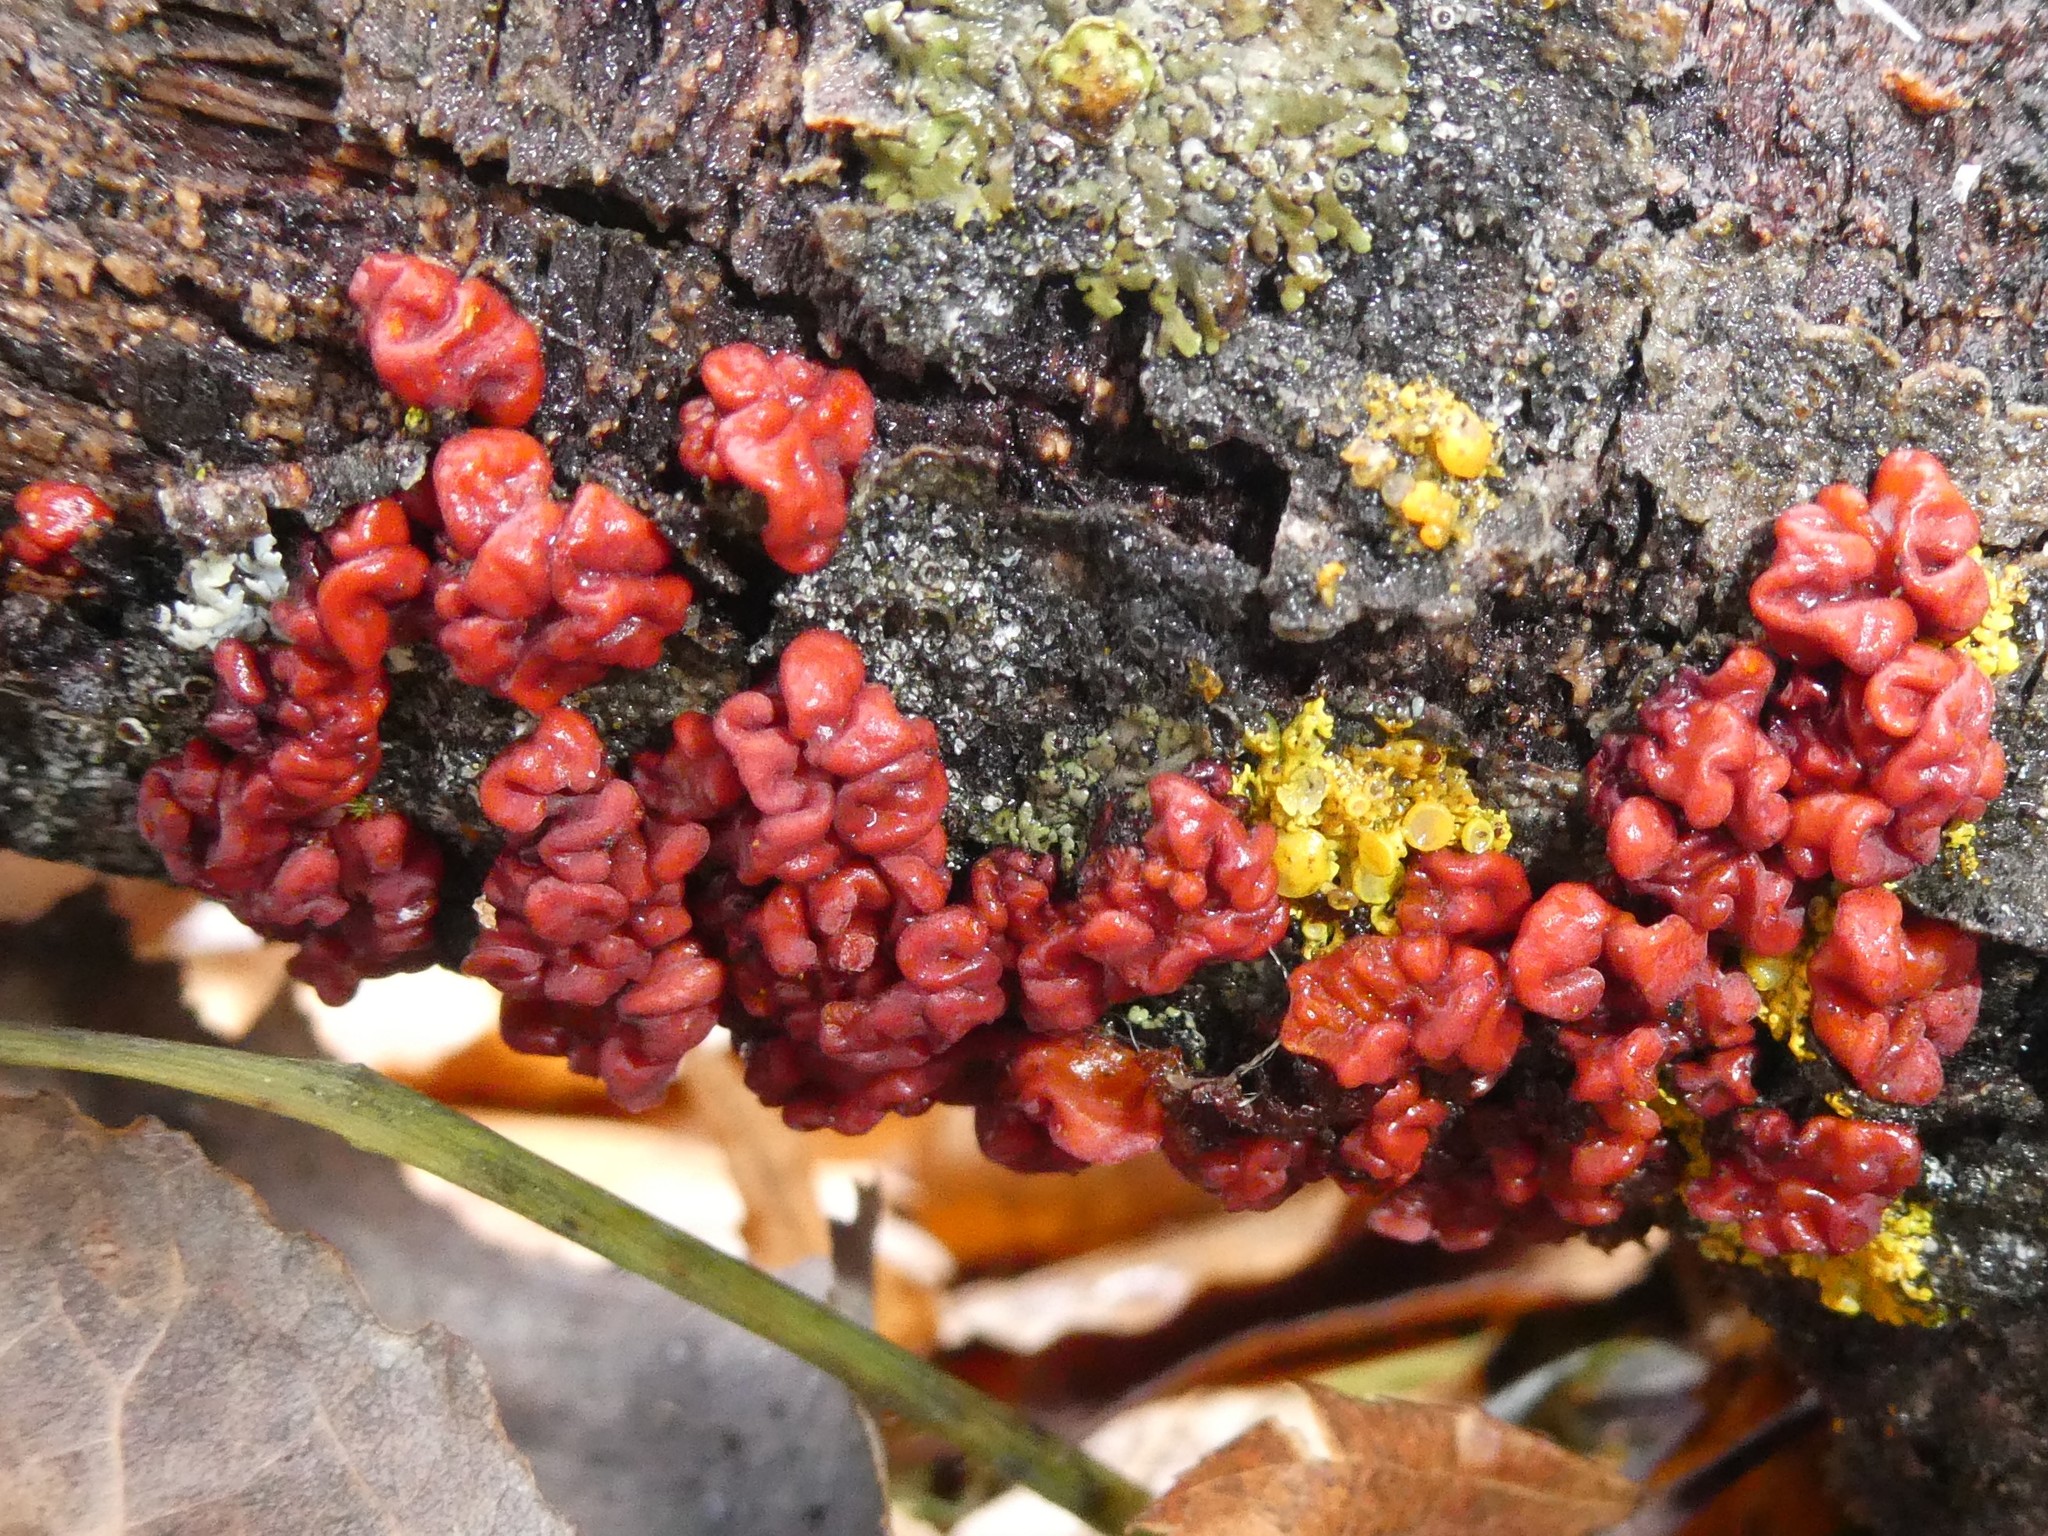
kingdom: Fungi
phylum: Basidiomycota
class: Agaricomycetes
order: Russulales
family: Peniophoraceae
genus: Peniophora
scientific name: Peniophora rufa
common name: Red tree brain fungus
